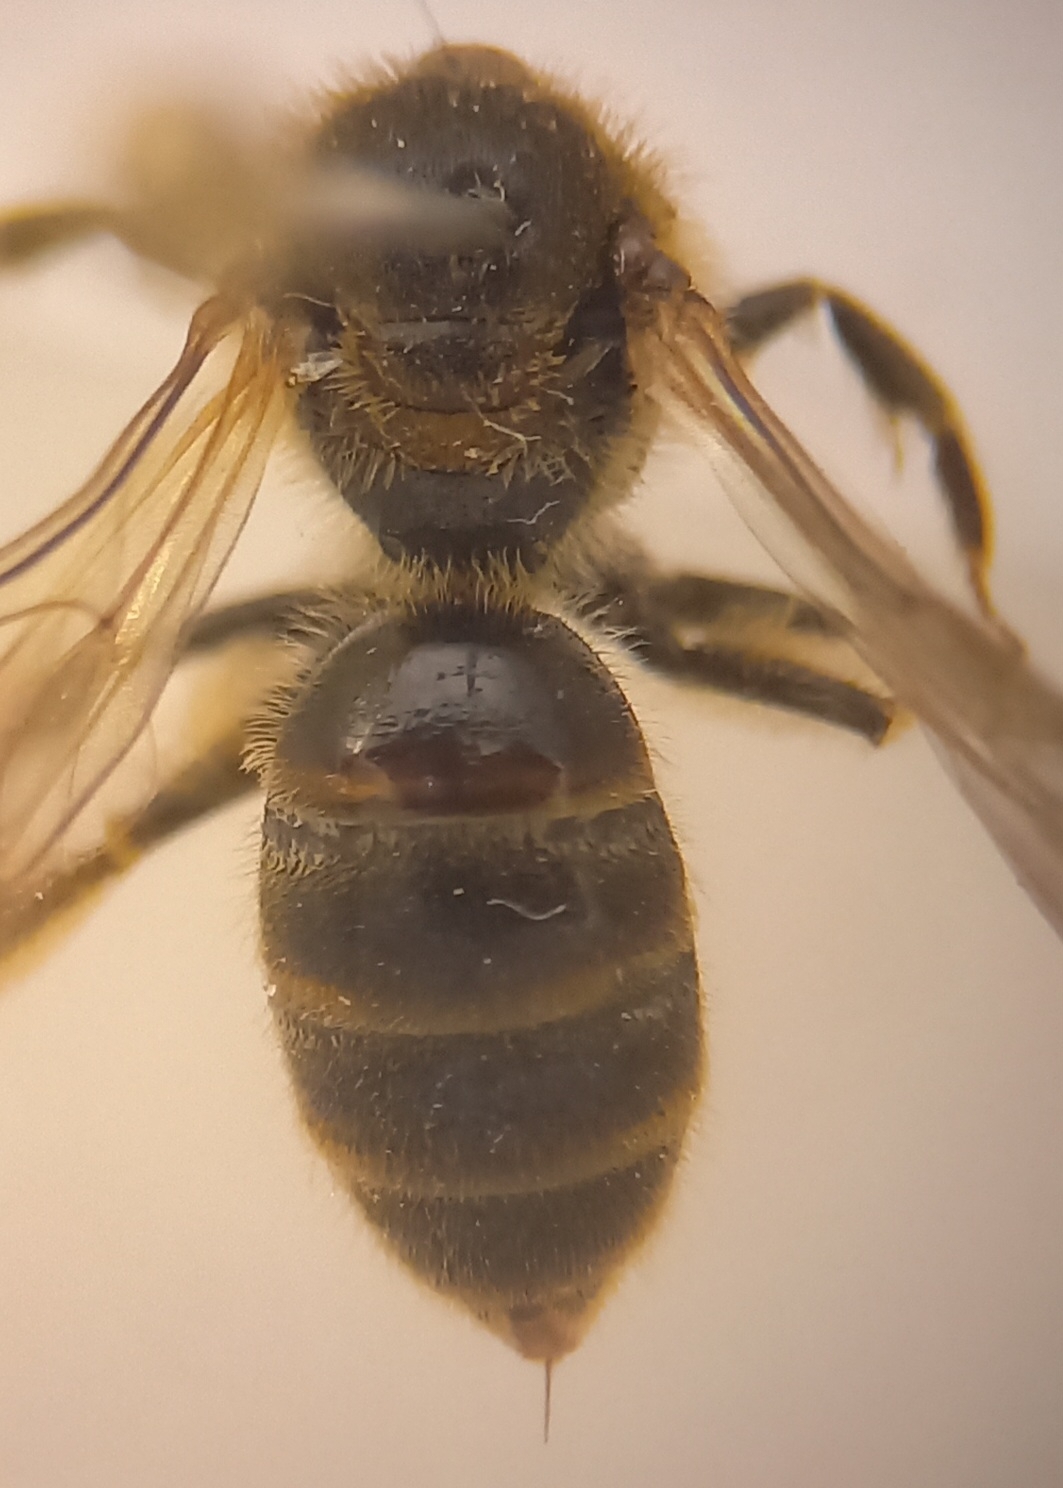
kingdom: Animalia
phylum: Arthropoda
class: Insecta
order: Hymenoptera
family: Halictidae
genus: Lasioglossum
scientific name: Lasioglossum calceatum
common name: Common furrow bee
